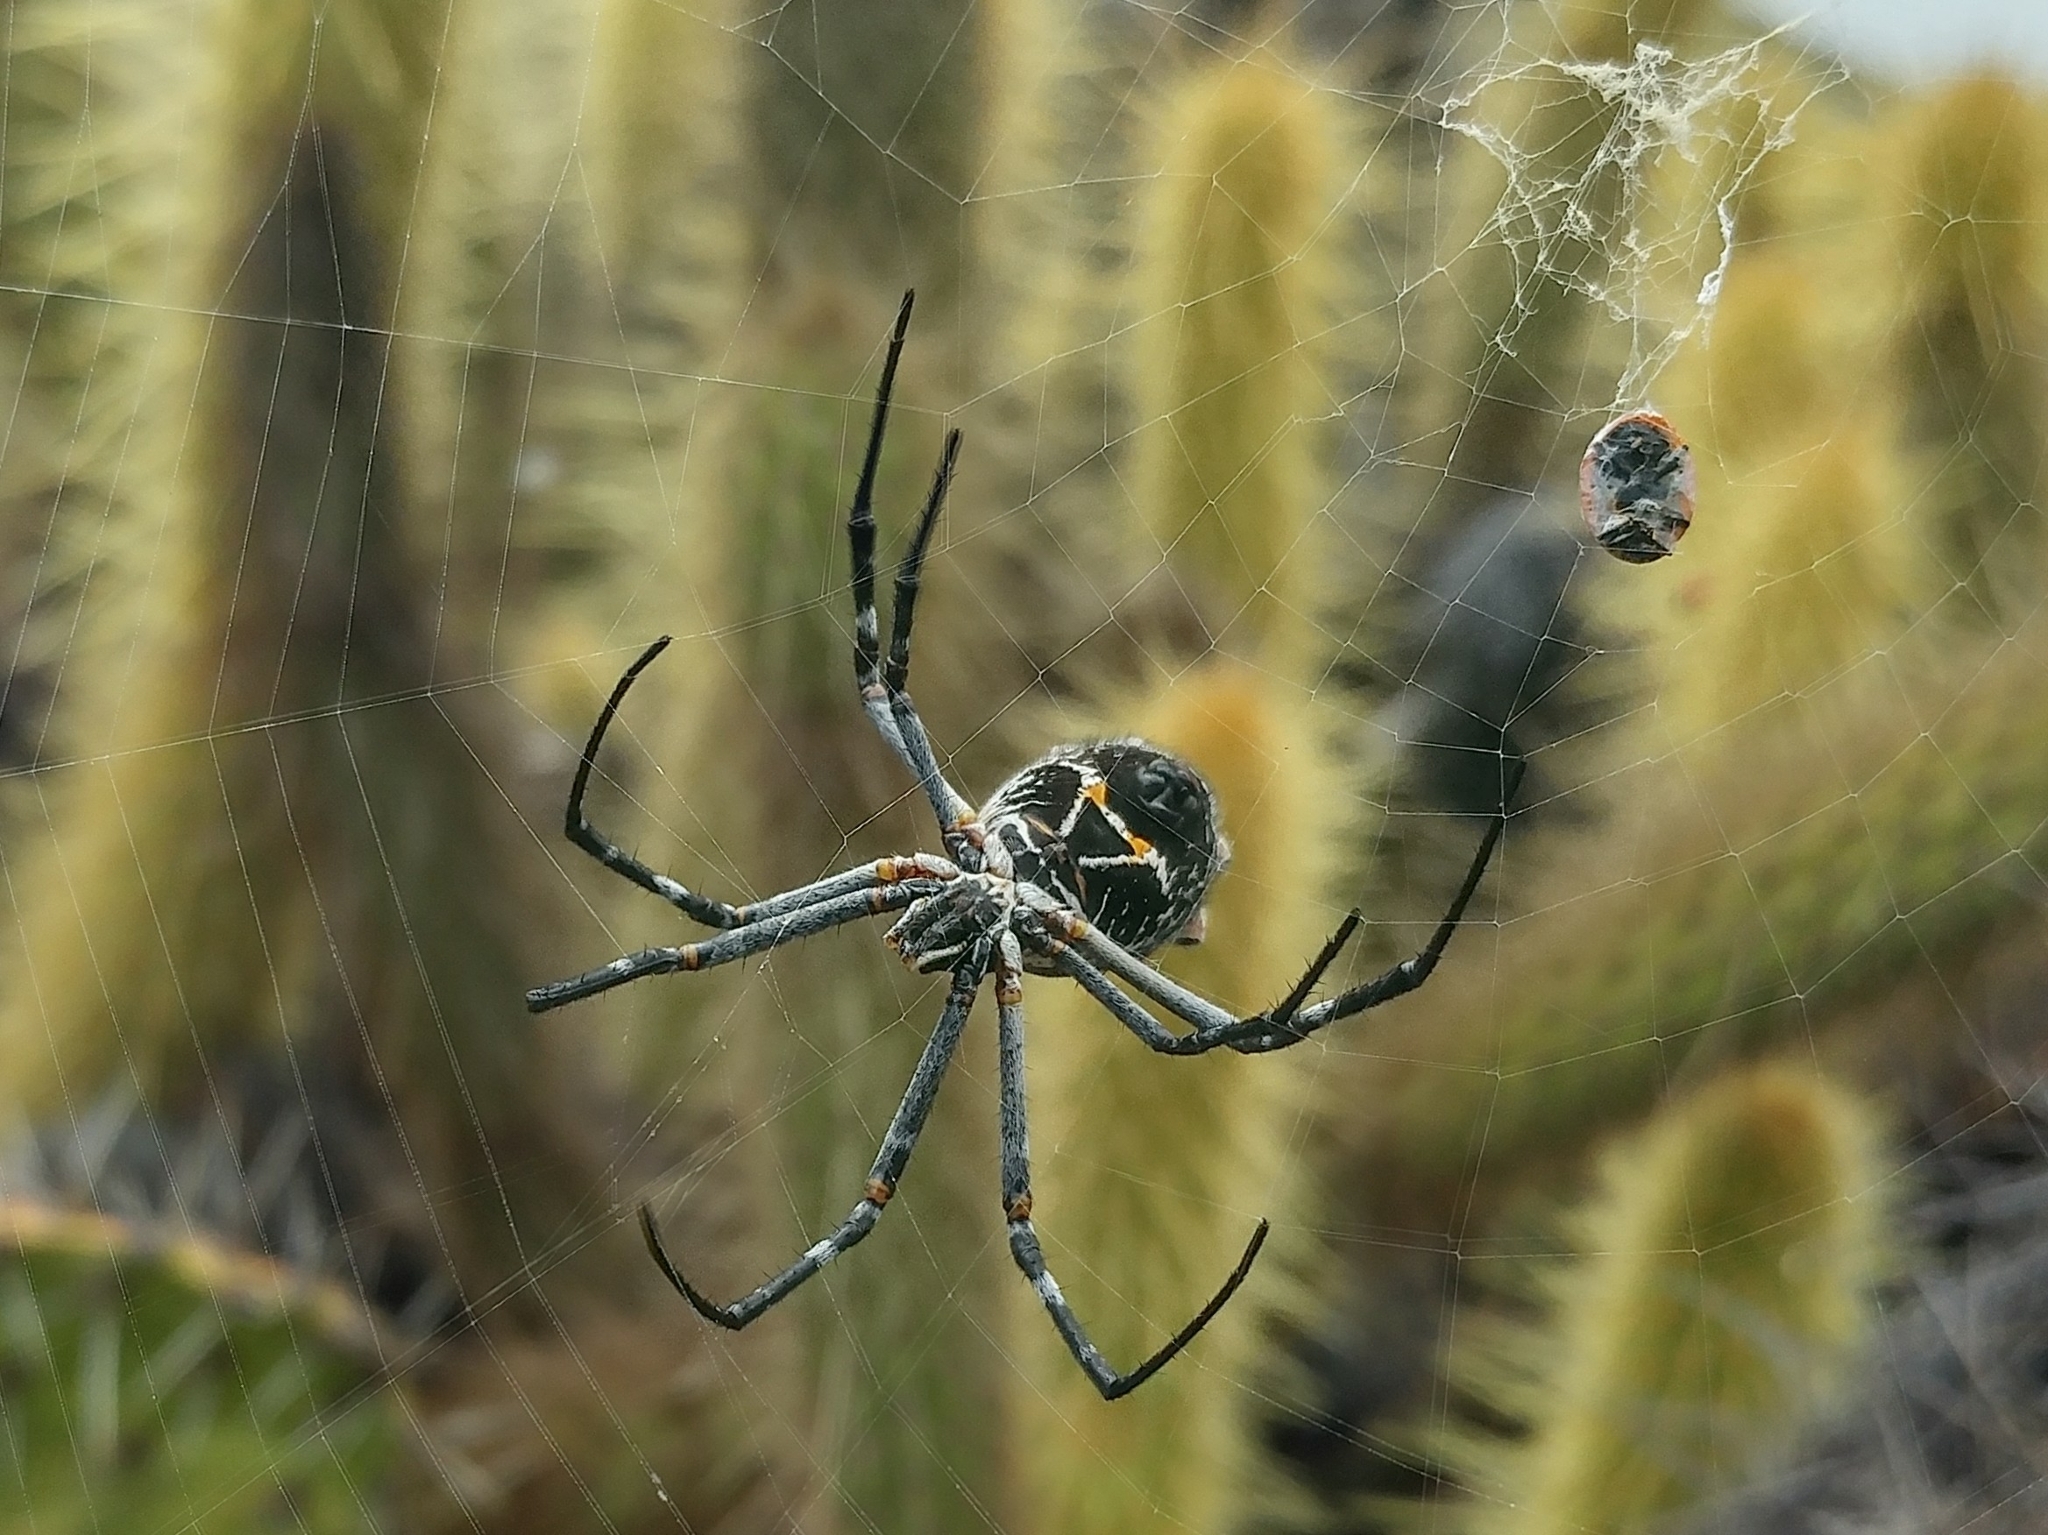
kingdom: Animalia
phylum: Arthropoda
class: Arachnida
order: Araneae
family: Araneidae
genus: Argiope
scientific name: Argiope argentata
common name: Orb weavers
